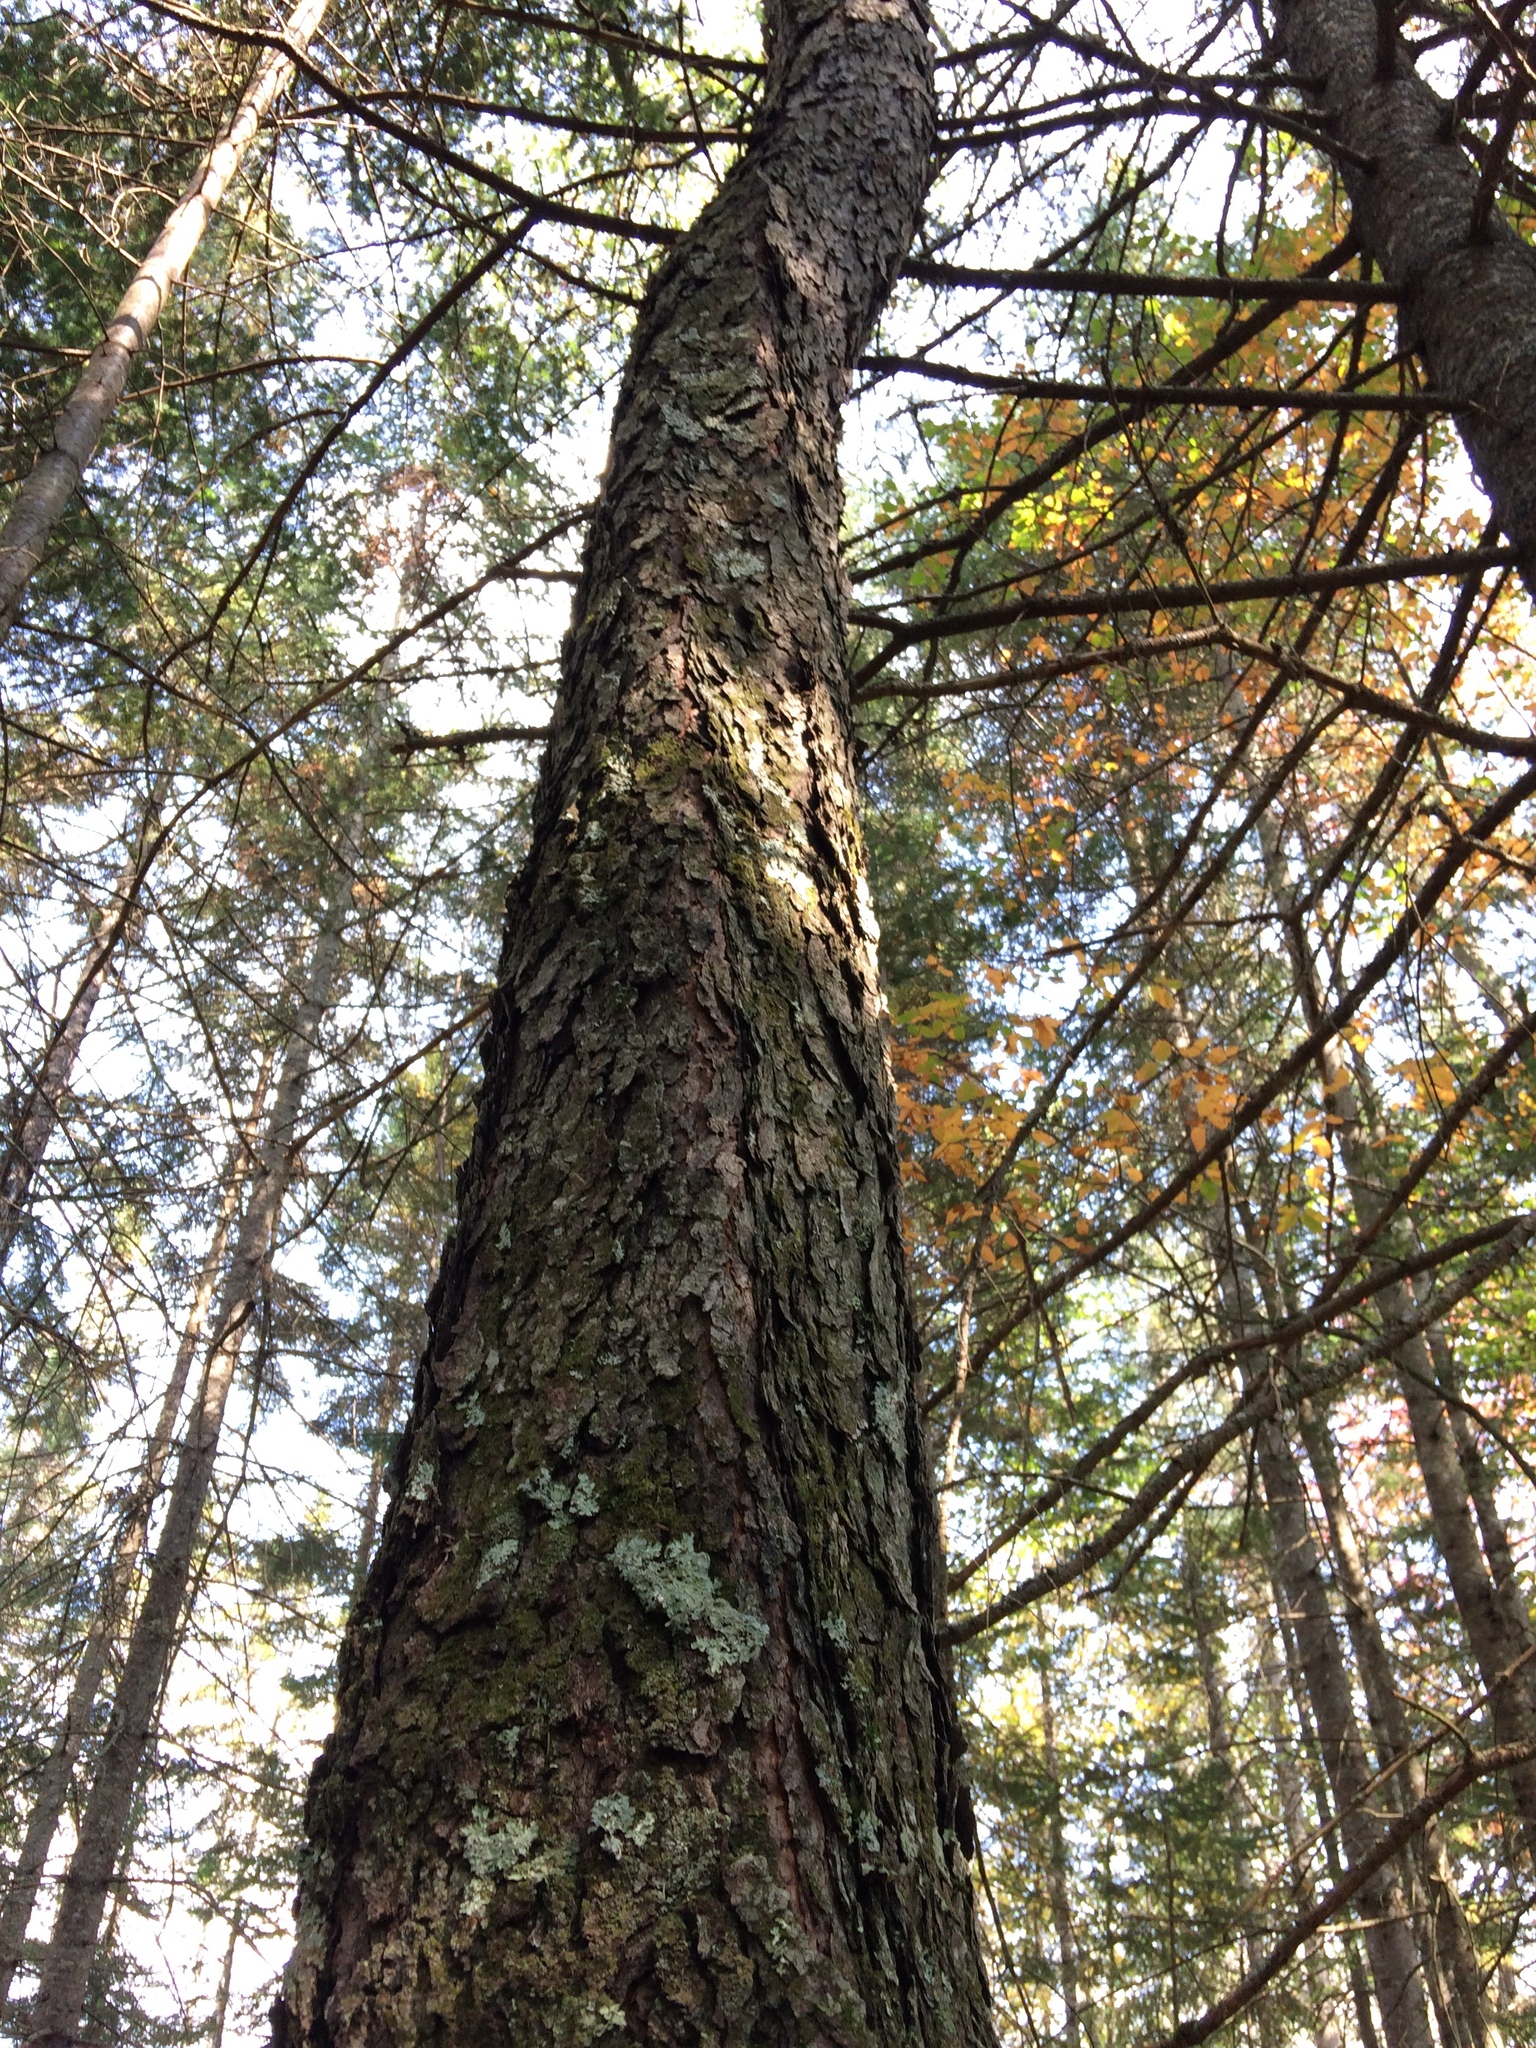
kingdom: Plantae
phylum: Tracheophyta
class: Magnoliopsida
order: Rosales
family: Rosaceae
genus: Prunus
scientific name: Prunus serotina
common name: Black cherry
